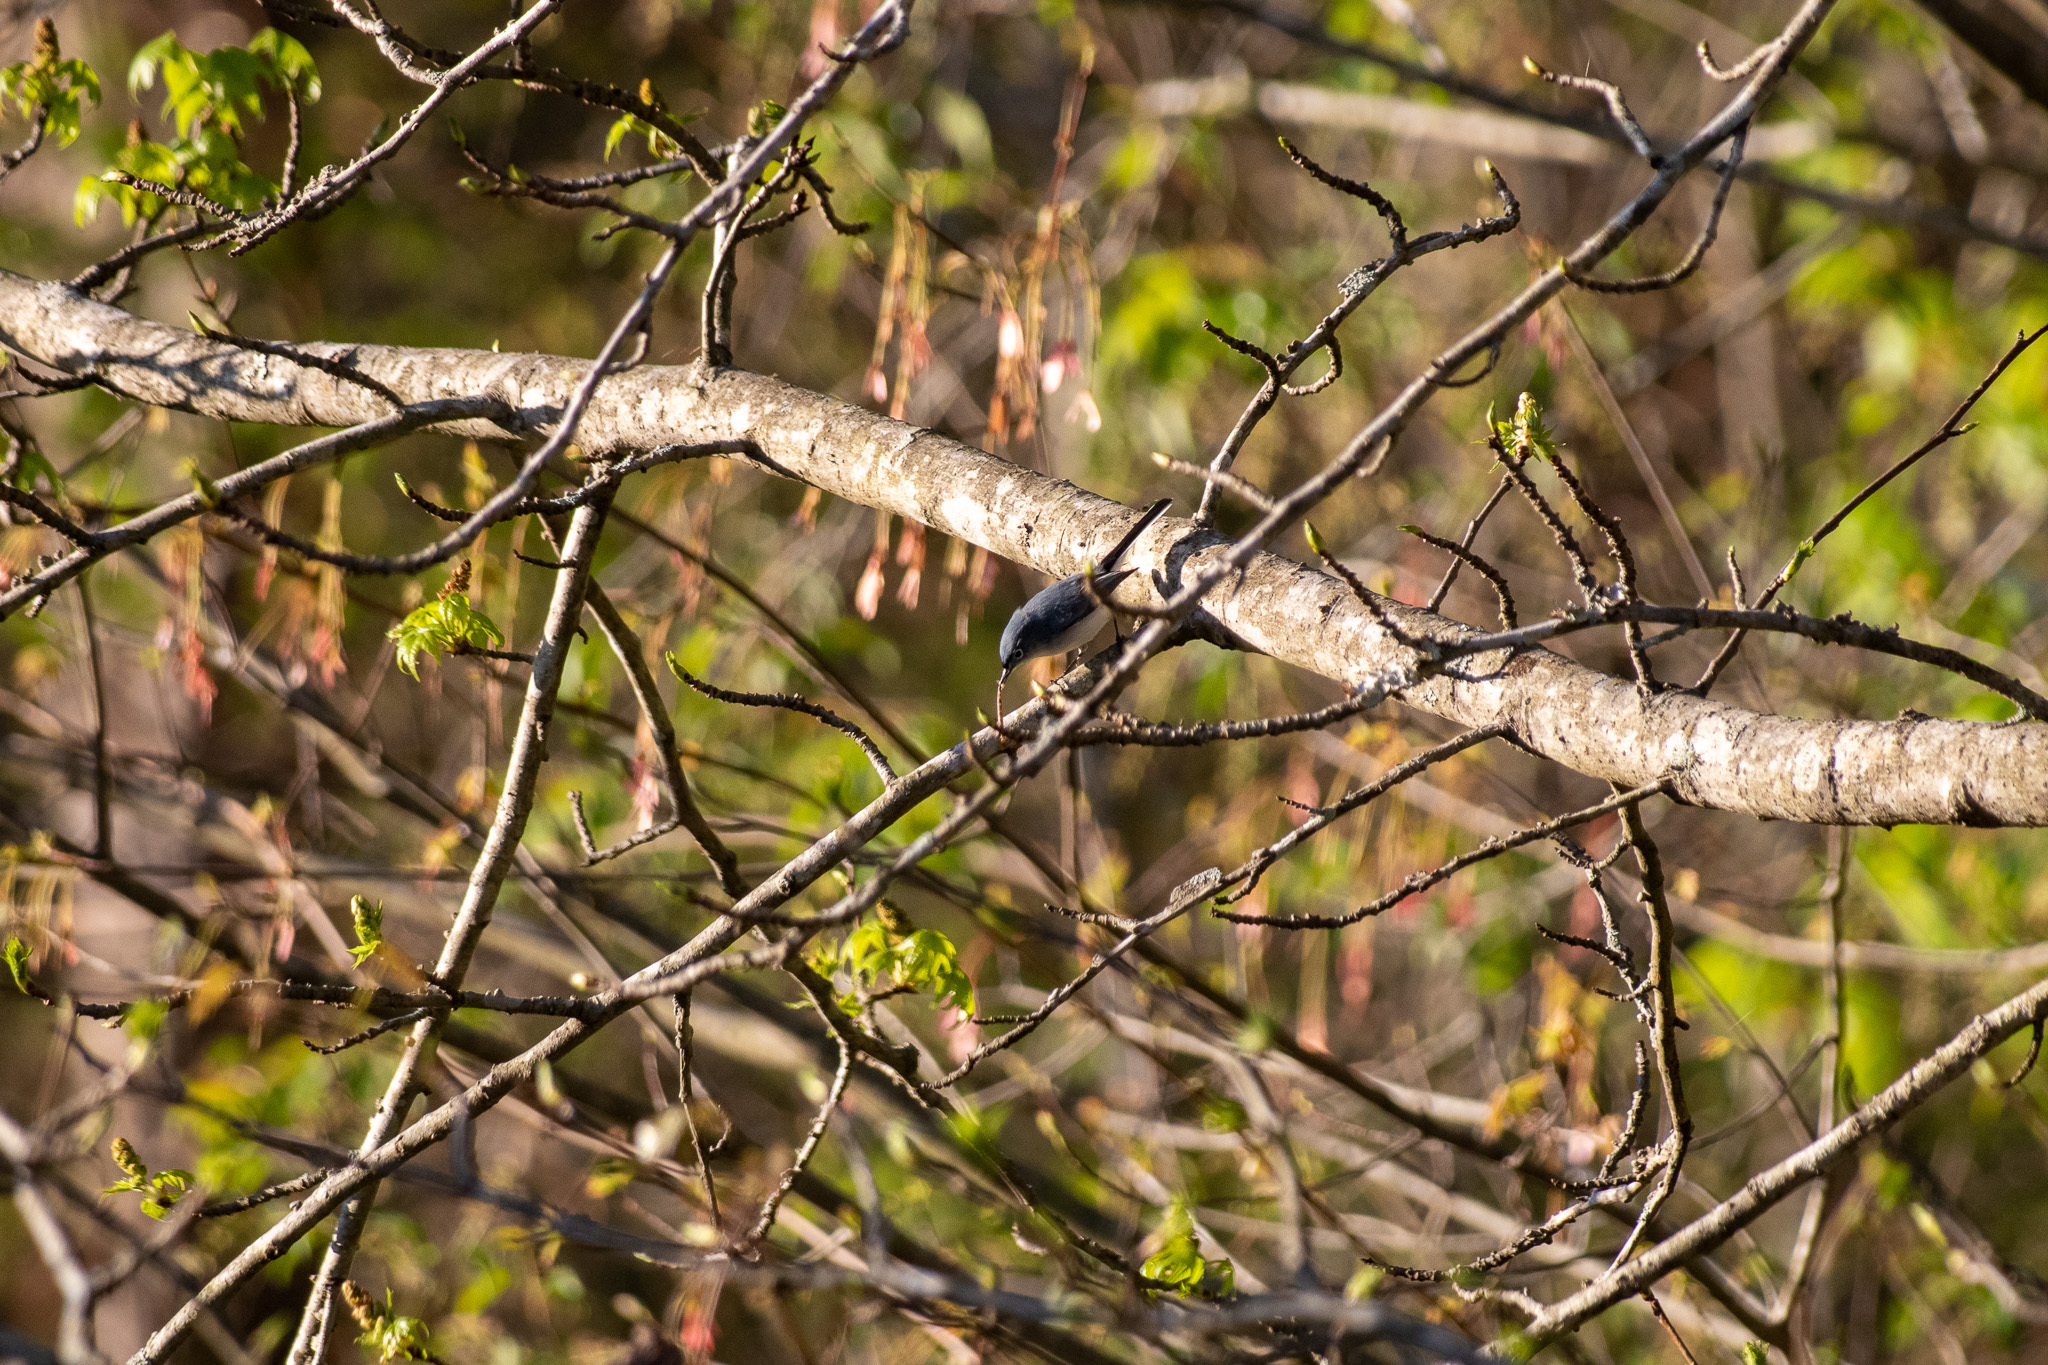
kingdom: Animalia
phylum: Chordata
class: Aves
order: Passeriformes
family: Polioptilidae
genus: Polioptila
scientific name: Polioptila caerulea
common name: Blue-gray gnatcatcher
